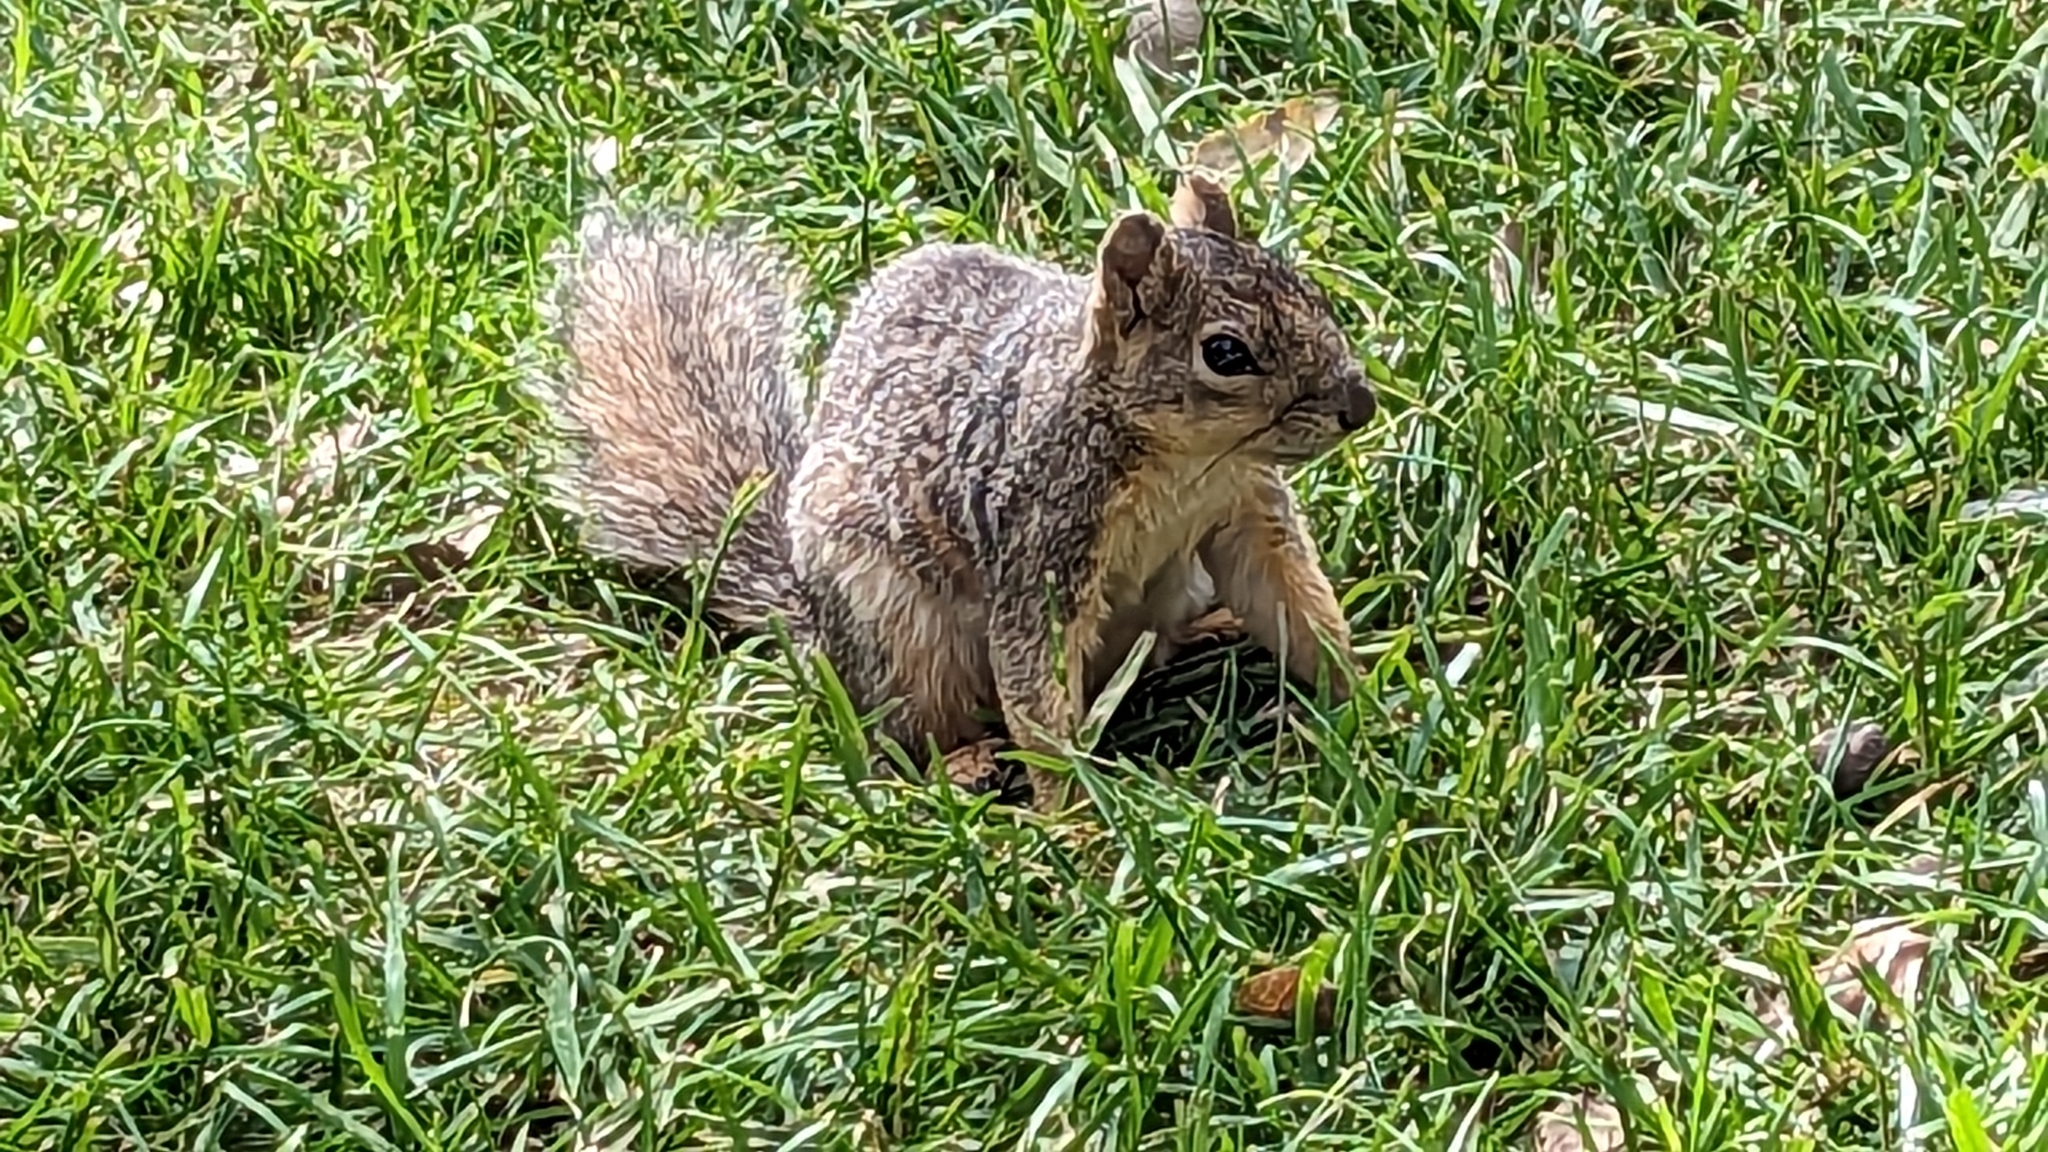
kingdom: Animalia
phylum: Chordata
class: Mammalia
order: Rodentia
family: Sciuridae
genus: Sciurus
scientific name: Sciurus niger
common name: Fox squirrel
